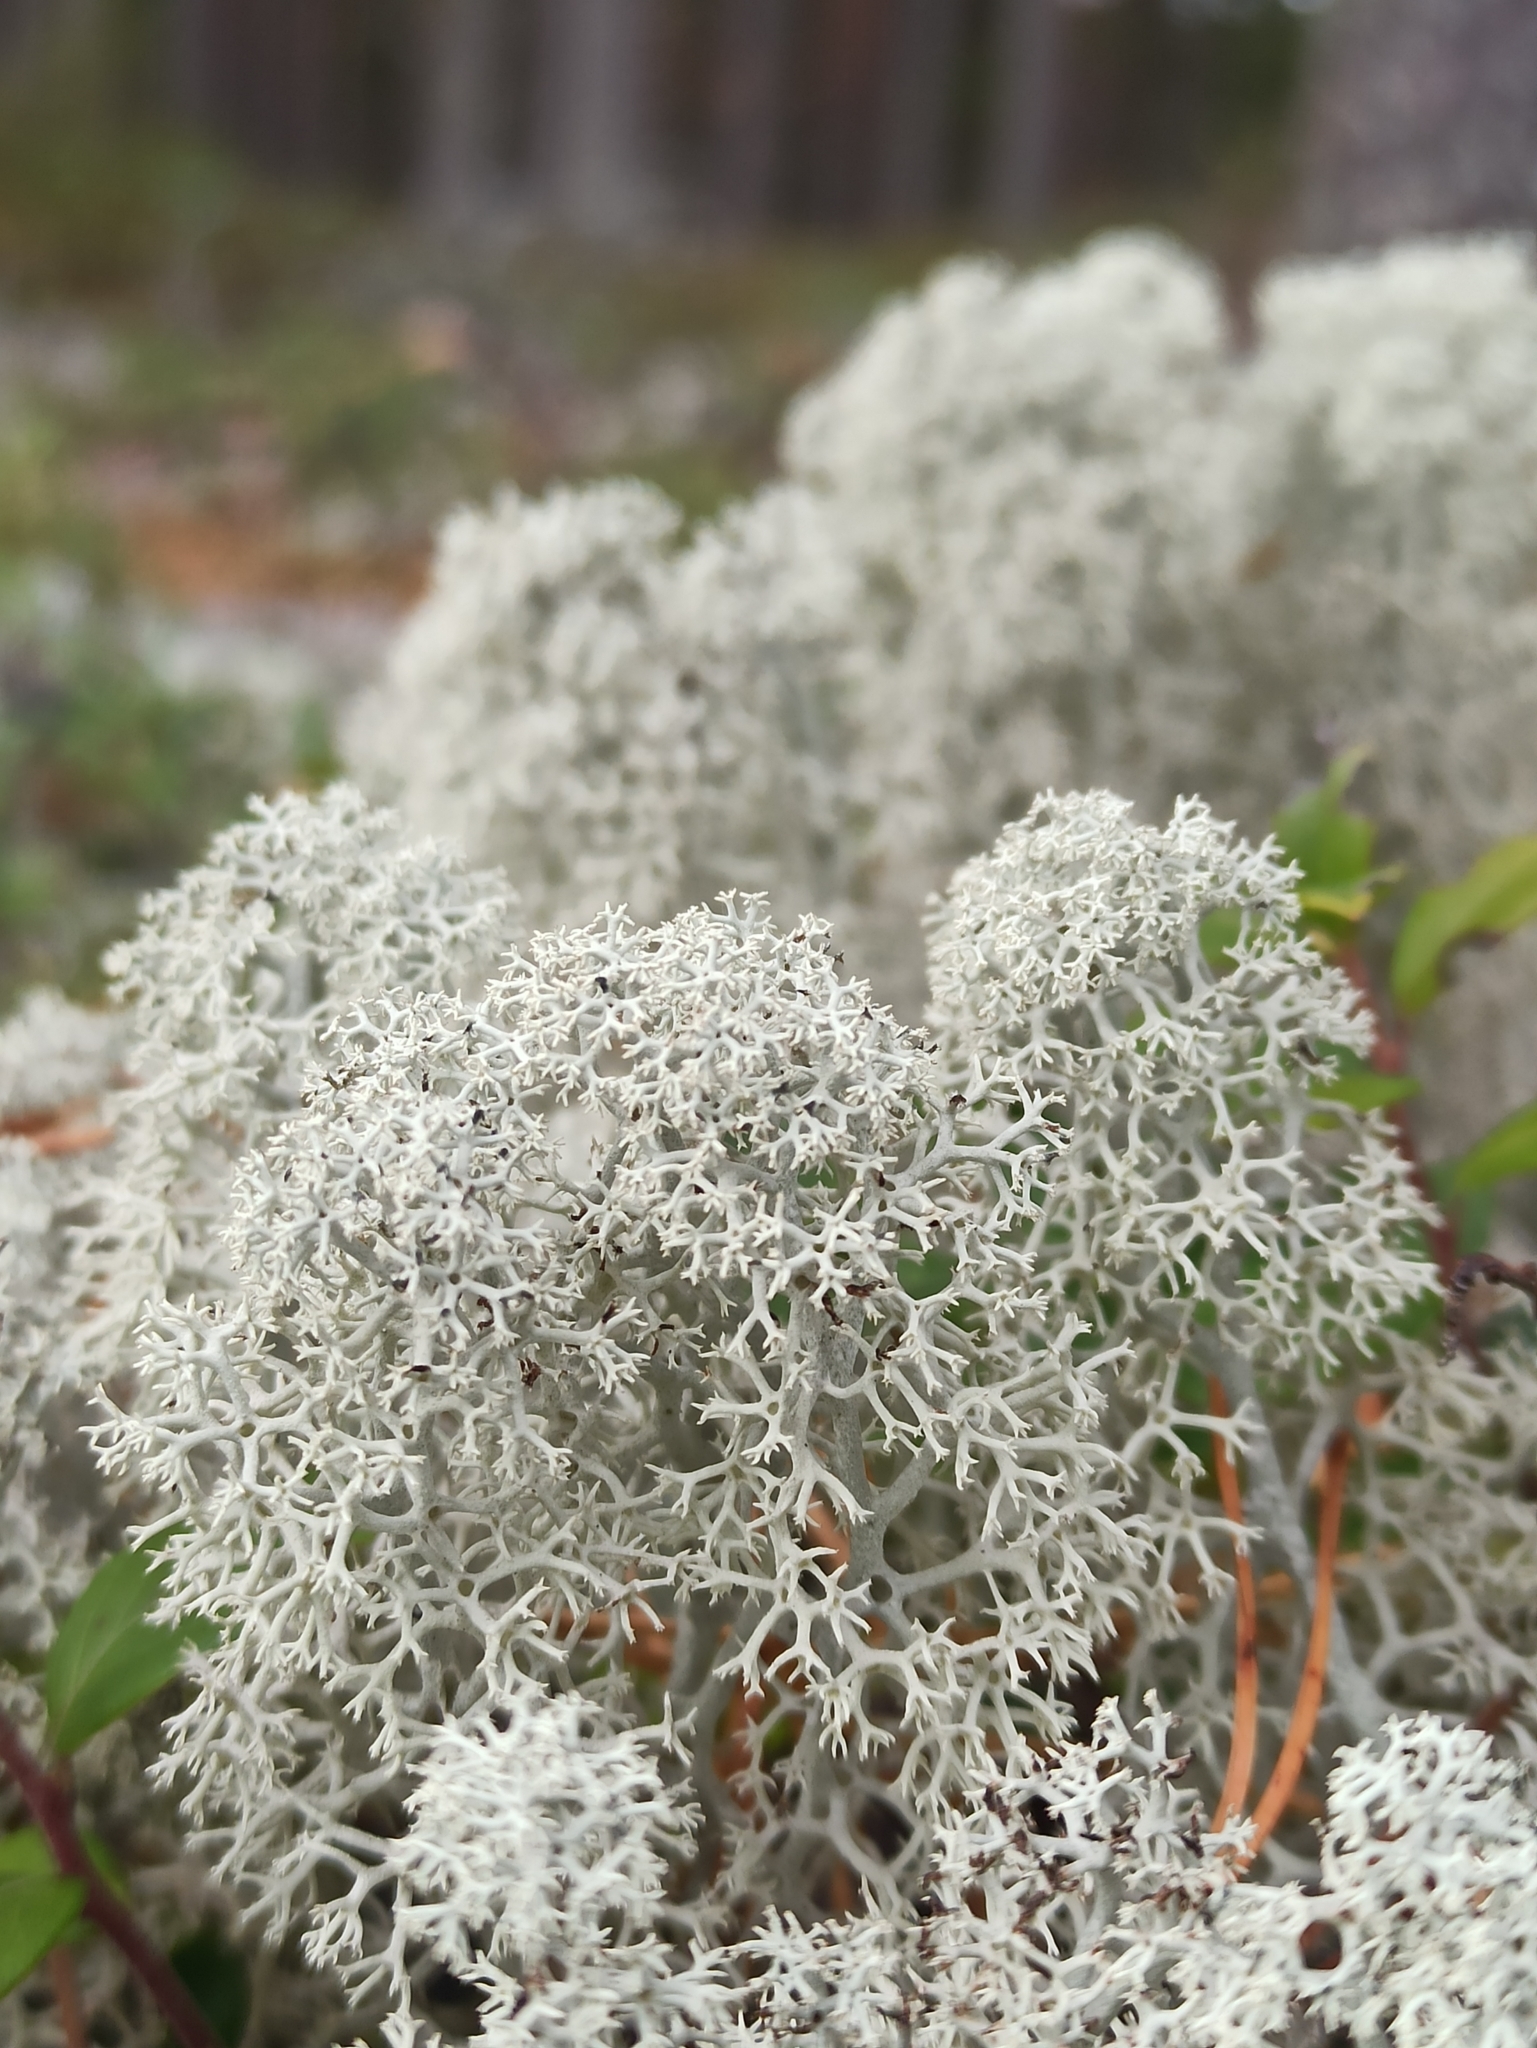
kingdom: Fungi
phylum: Ascomycota
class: Lecanoromycetes
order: Lecanorales
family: Cladoniaceae
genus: Cladonia
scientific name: Cladonia stellaris
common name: Star-tipped reindeer lichen
